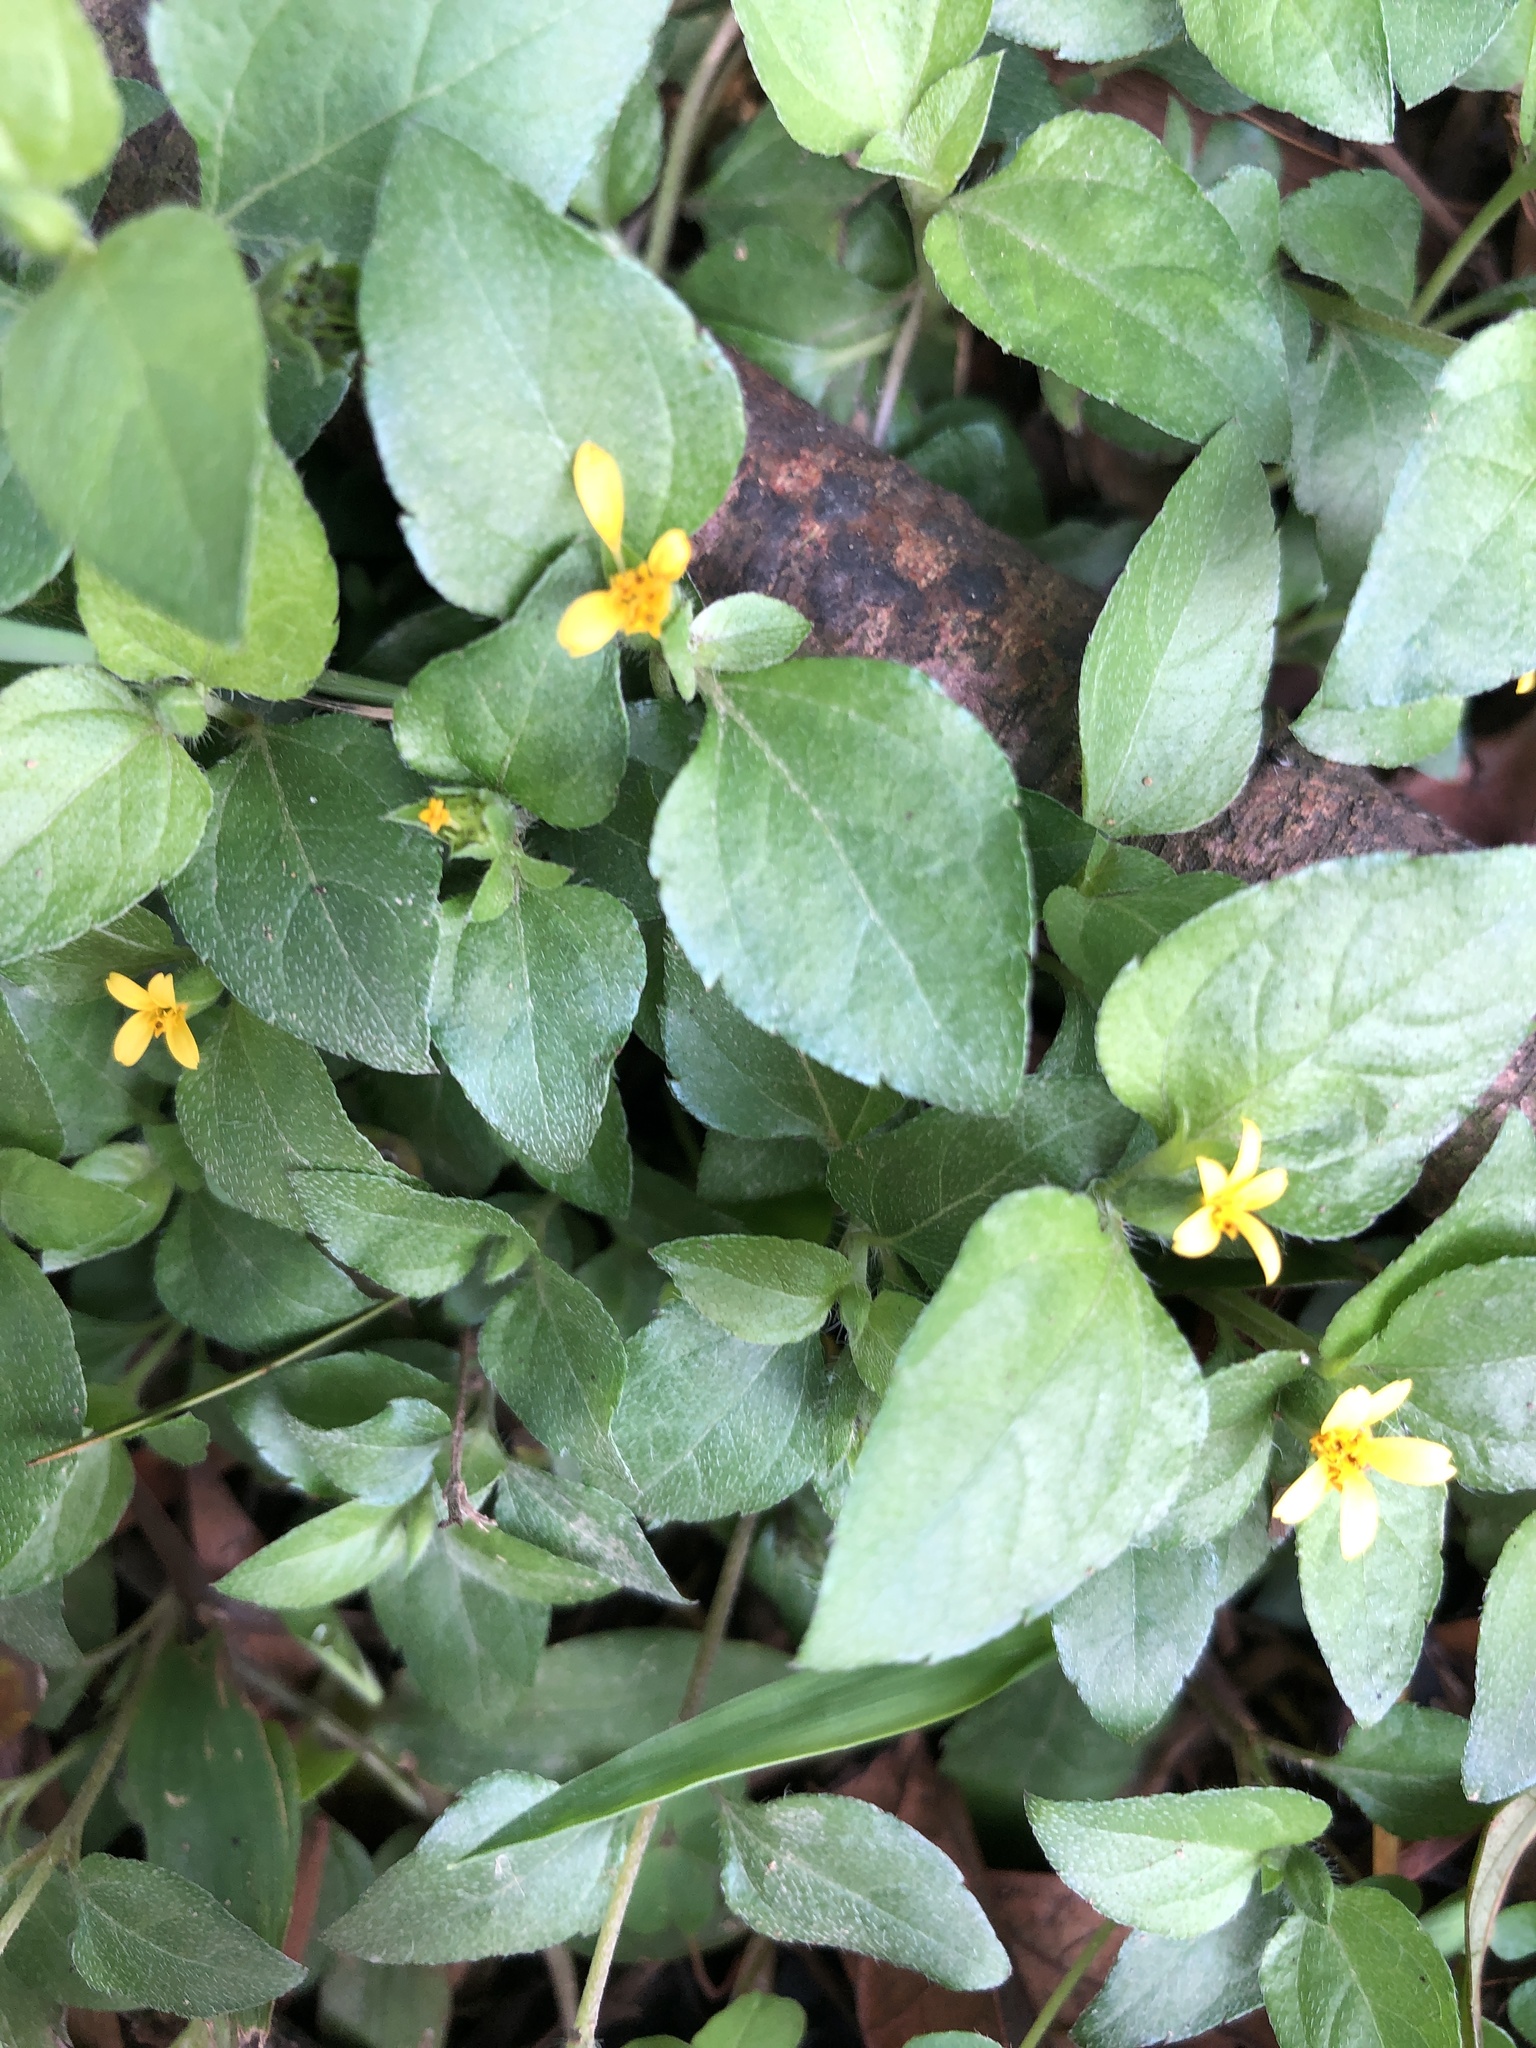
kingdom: Plantae
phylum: Tracheophyta
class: Magnoliopsida
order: Asterales
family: Asteraceae
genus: Calyptocarpus
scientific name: Calyptocarpus vialis
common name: Straggler daisy
